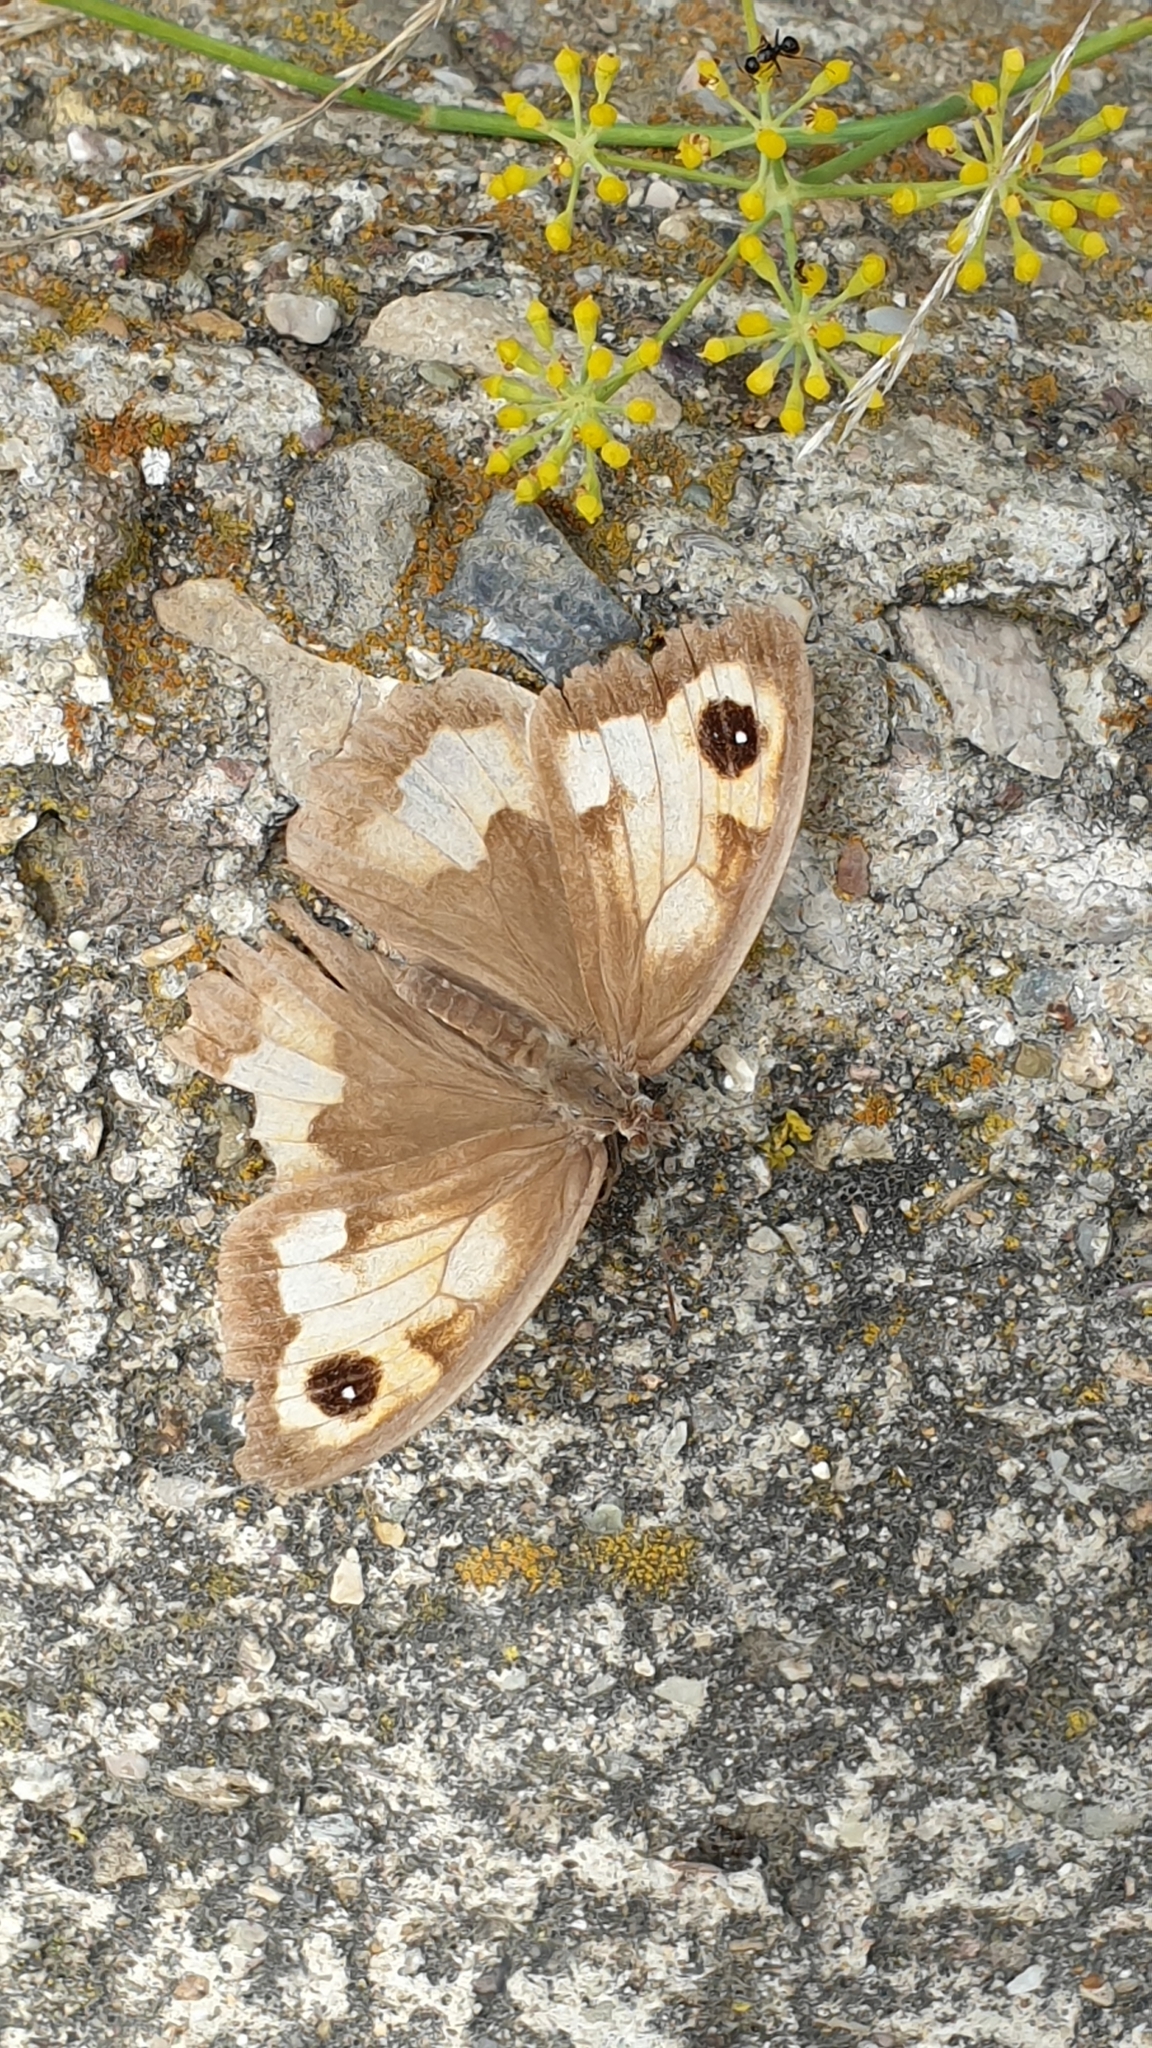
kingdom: Animalia
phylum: Arthropoda
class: Insecta
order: Lepidoptera
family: Nymphalidae
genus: Maniola
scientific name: Maniola jurtina
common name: Meadow brown
